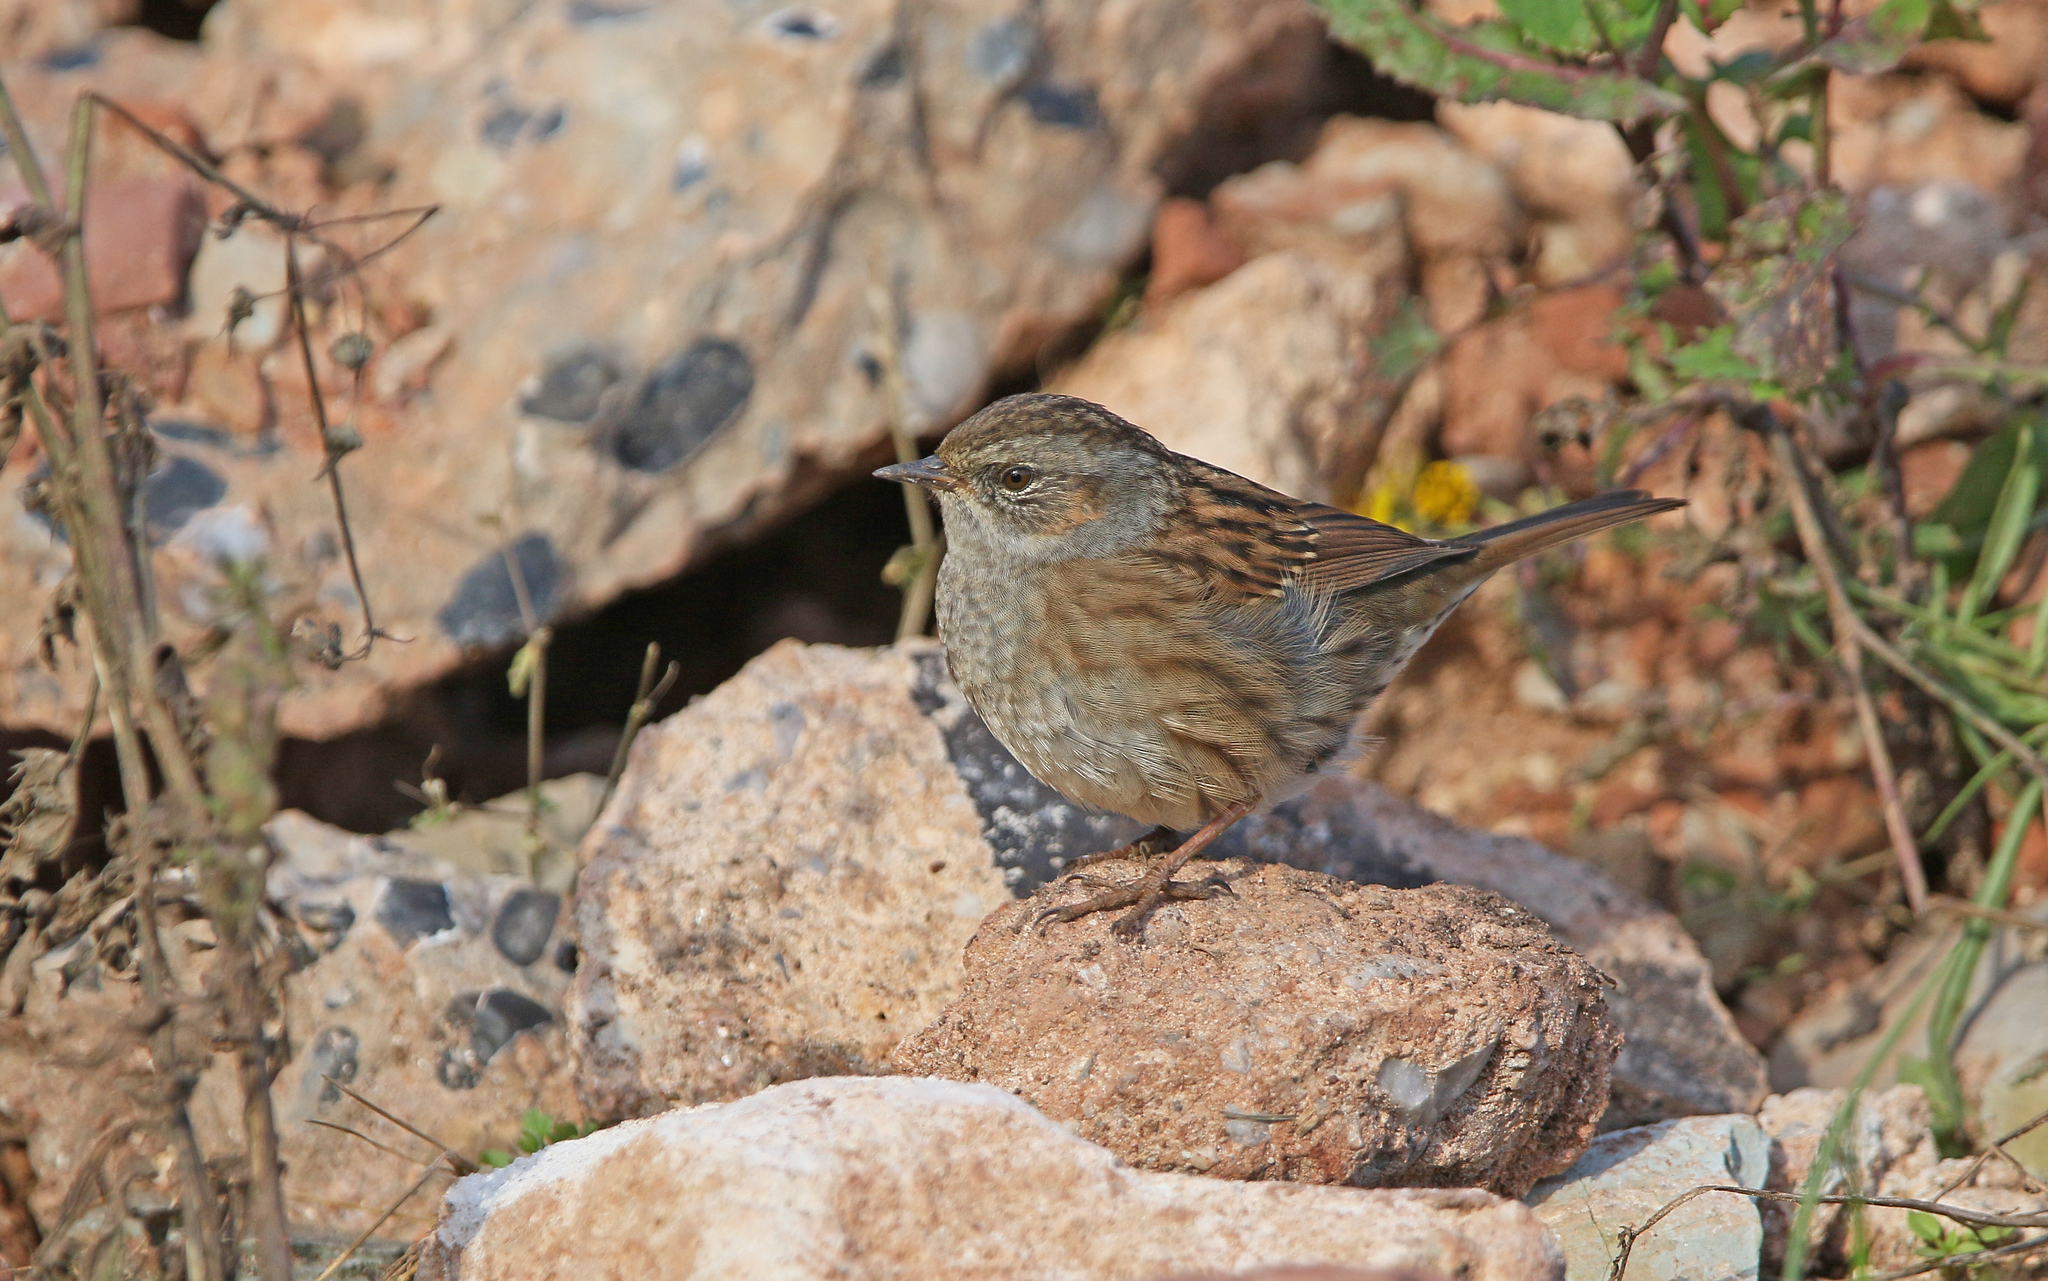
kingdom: Animalia
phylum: Chordata
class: Aves
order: Passeriformes
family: Prunellidae
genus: Prunella
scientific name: Prunella modularis
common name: Dunnock
